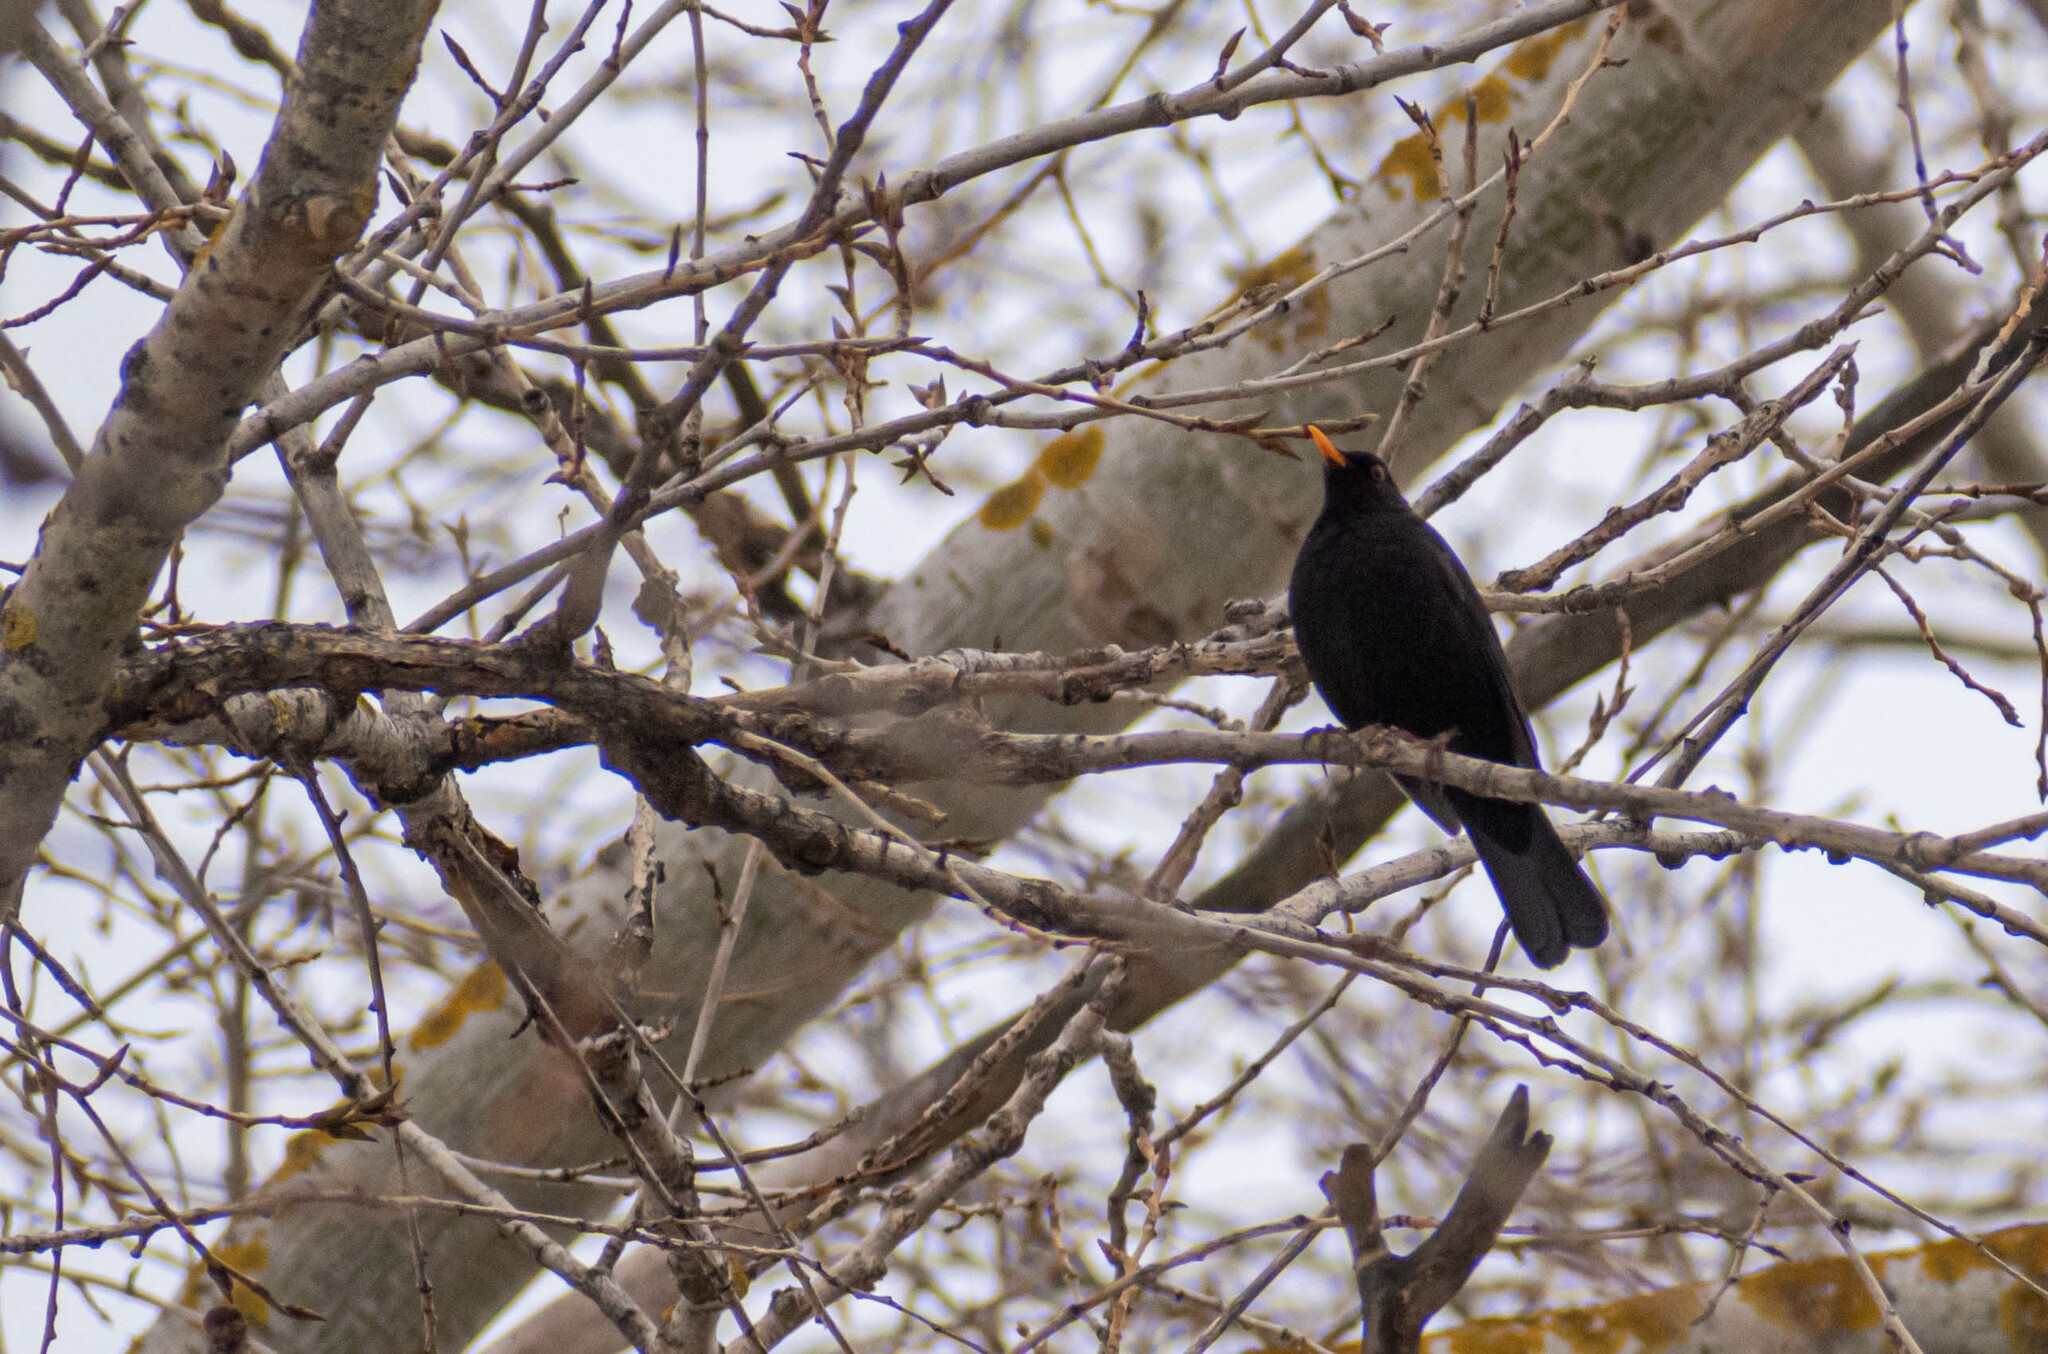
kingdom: Animalia
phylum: Chordata
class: Aves
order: Passeriformes
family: Turdidae
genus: Turdus
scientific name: Turdus merula
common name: Common blackbird
